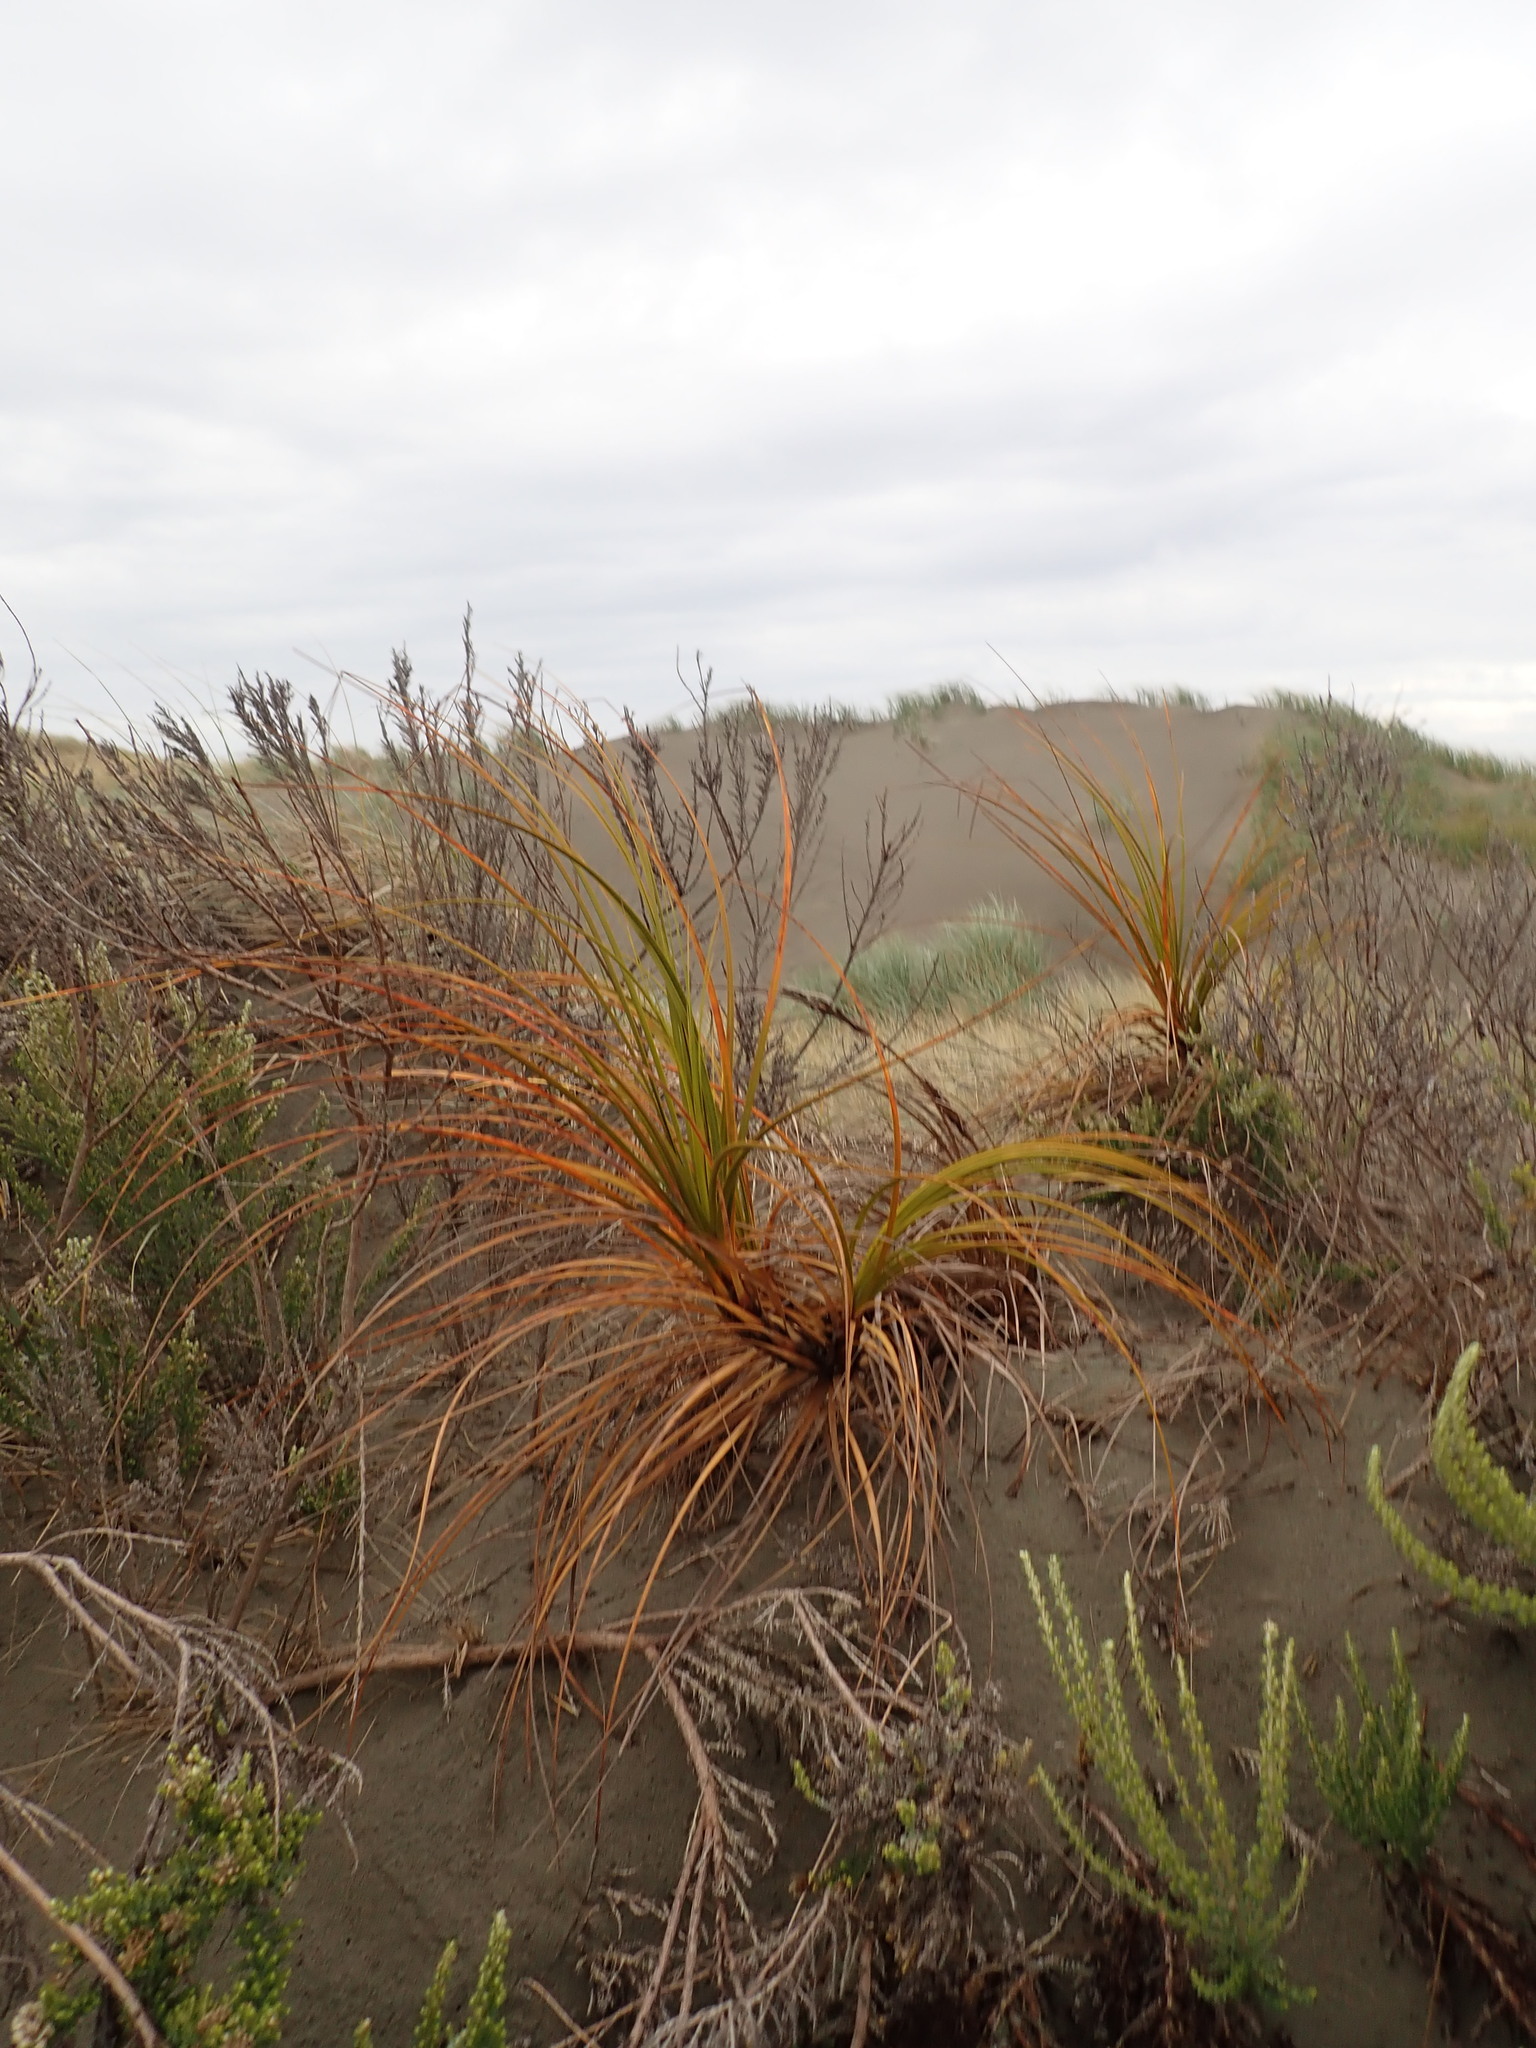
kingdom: Plantae
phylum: Tracheophyta
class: Liliopsida
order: Poales
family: Cyperaceae
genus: Ficinia
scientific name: Ficinia spiralis
